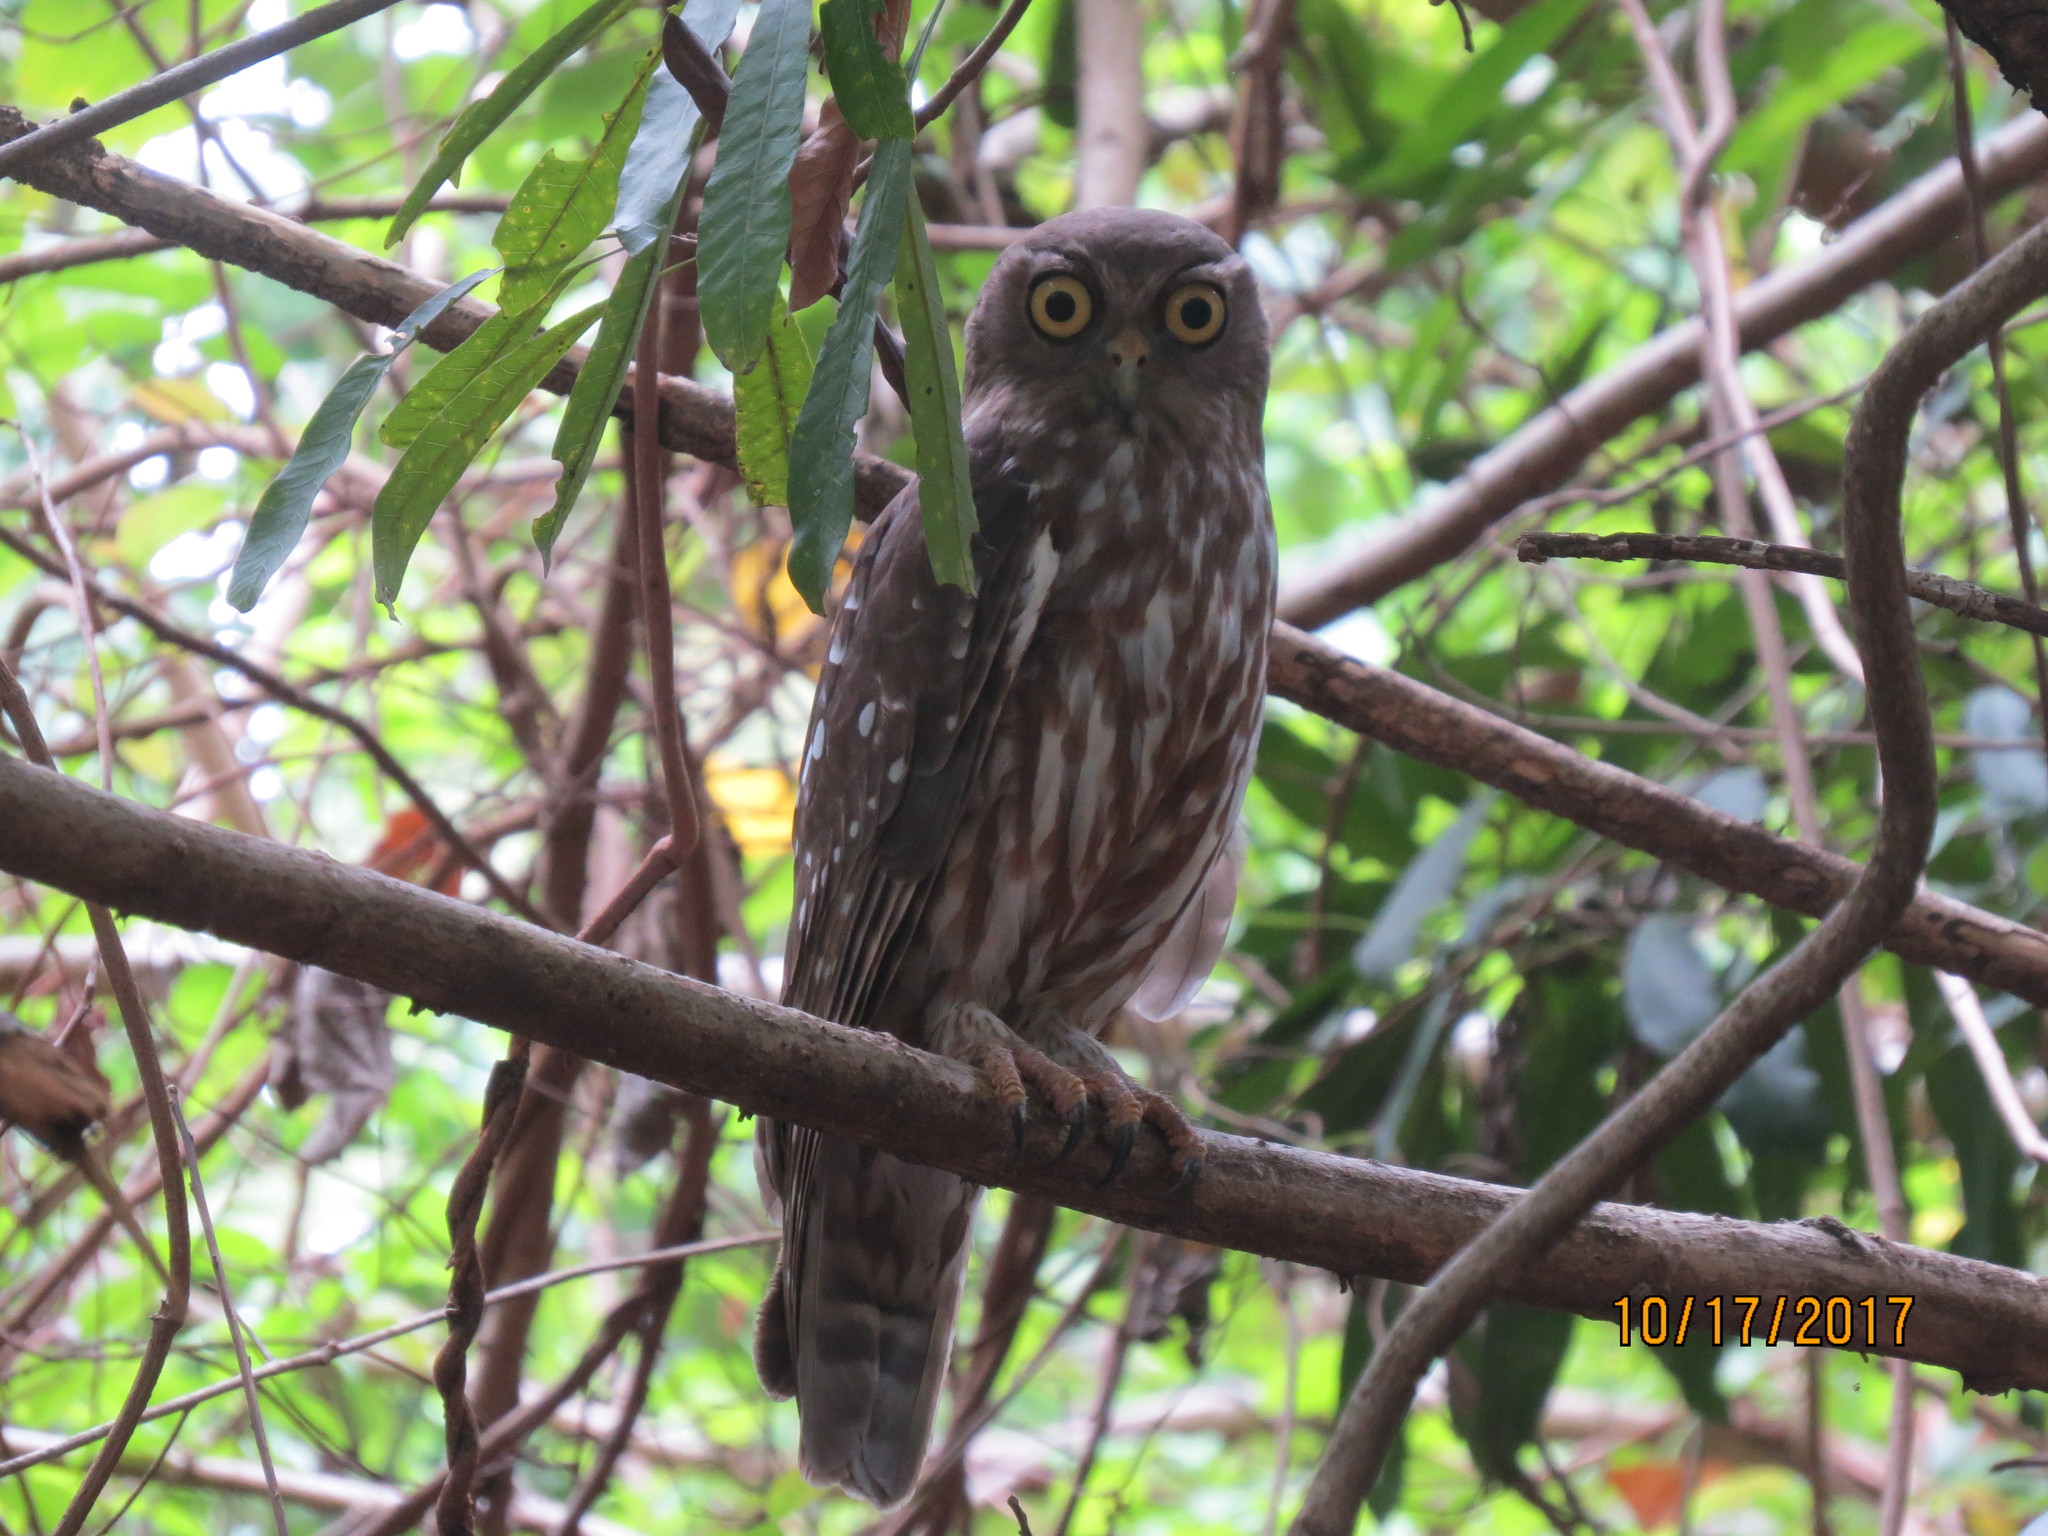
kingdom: Animalia
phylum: Chordata
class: Aves
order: Strigiformes
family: Strigidae
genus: Ninox
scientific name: Ninox connivens
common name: Barking owl
